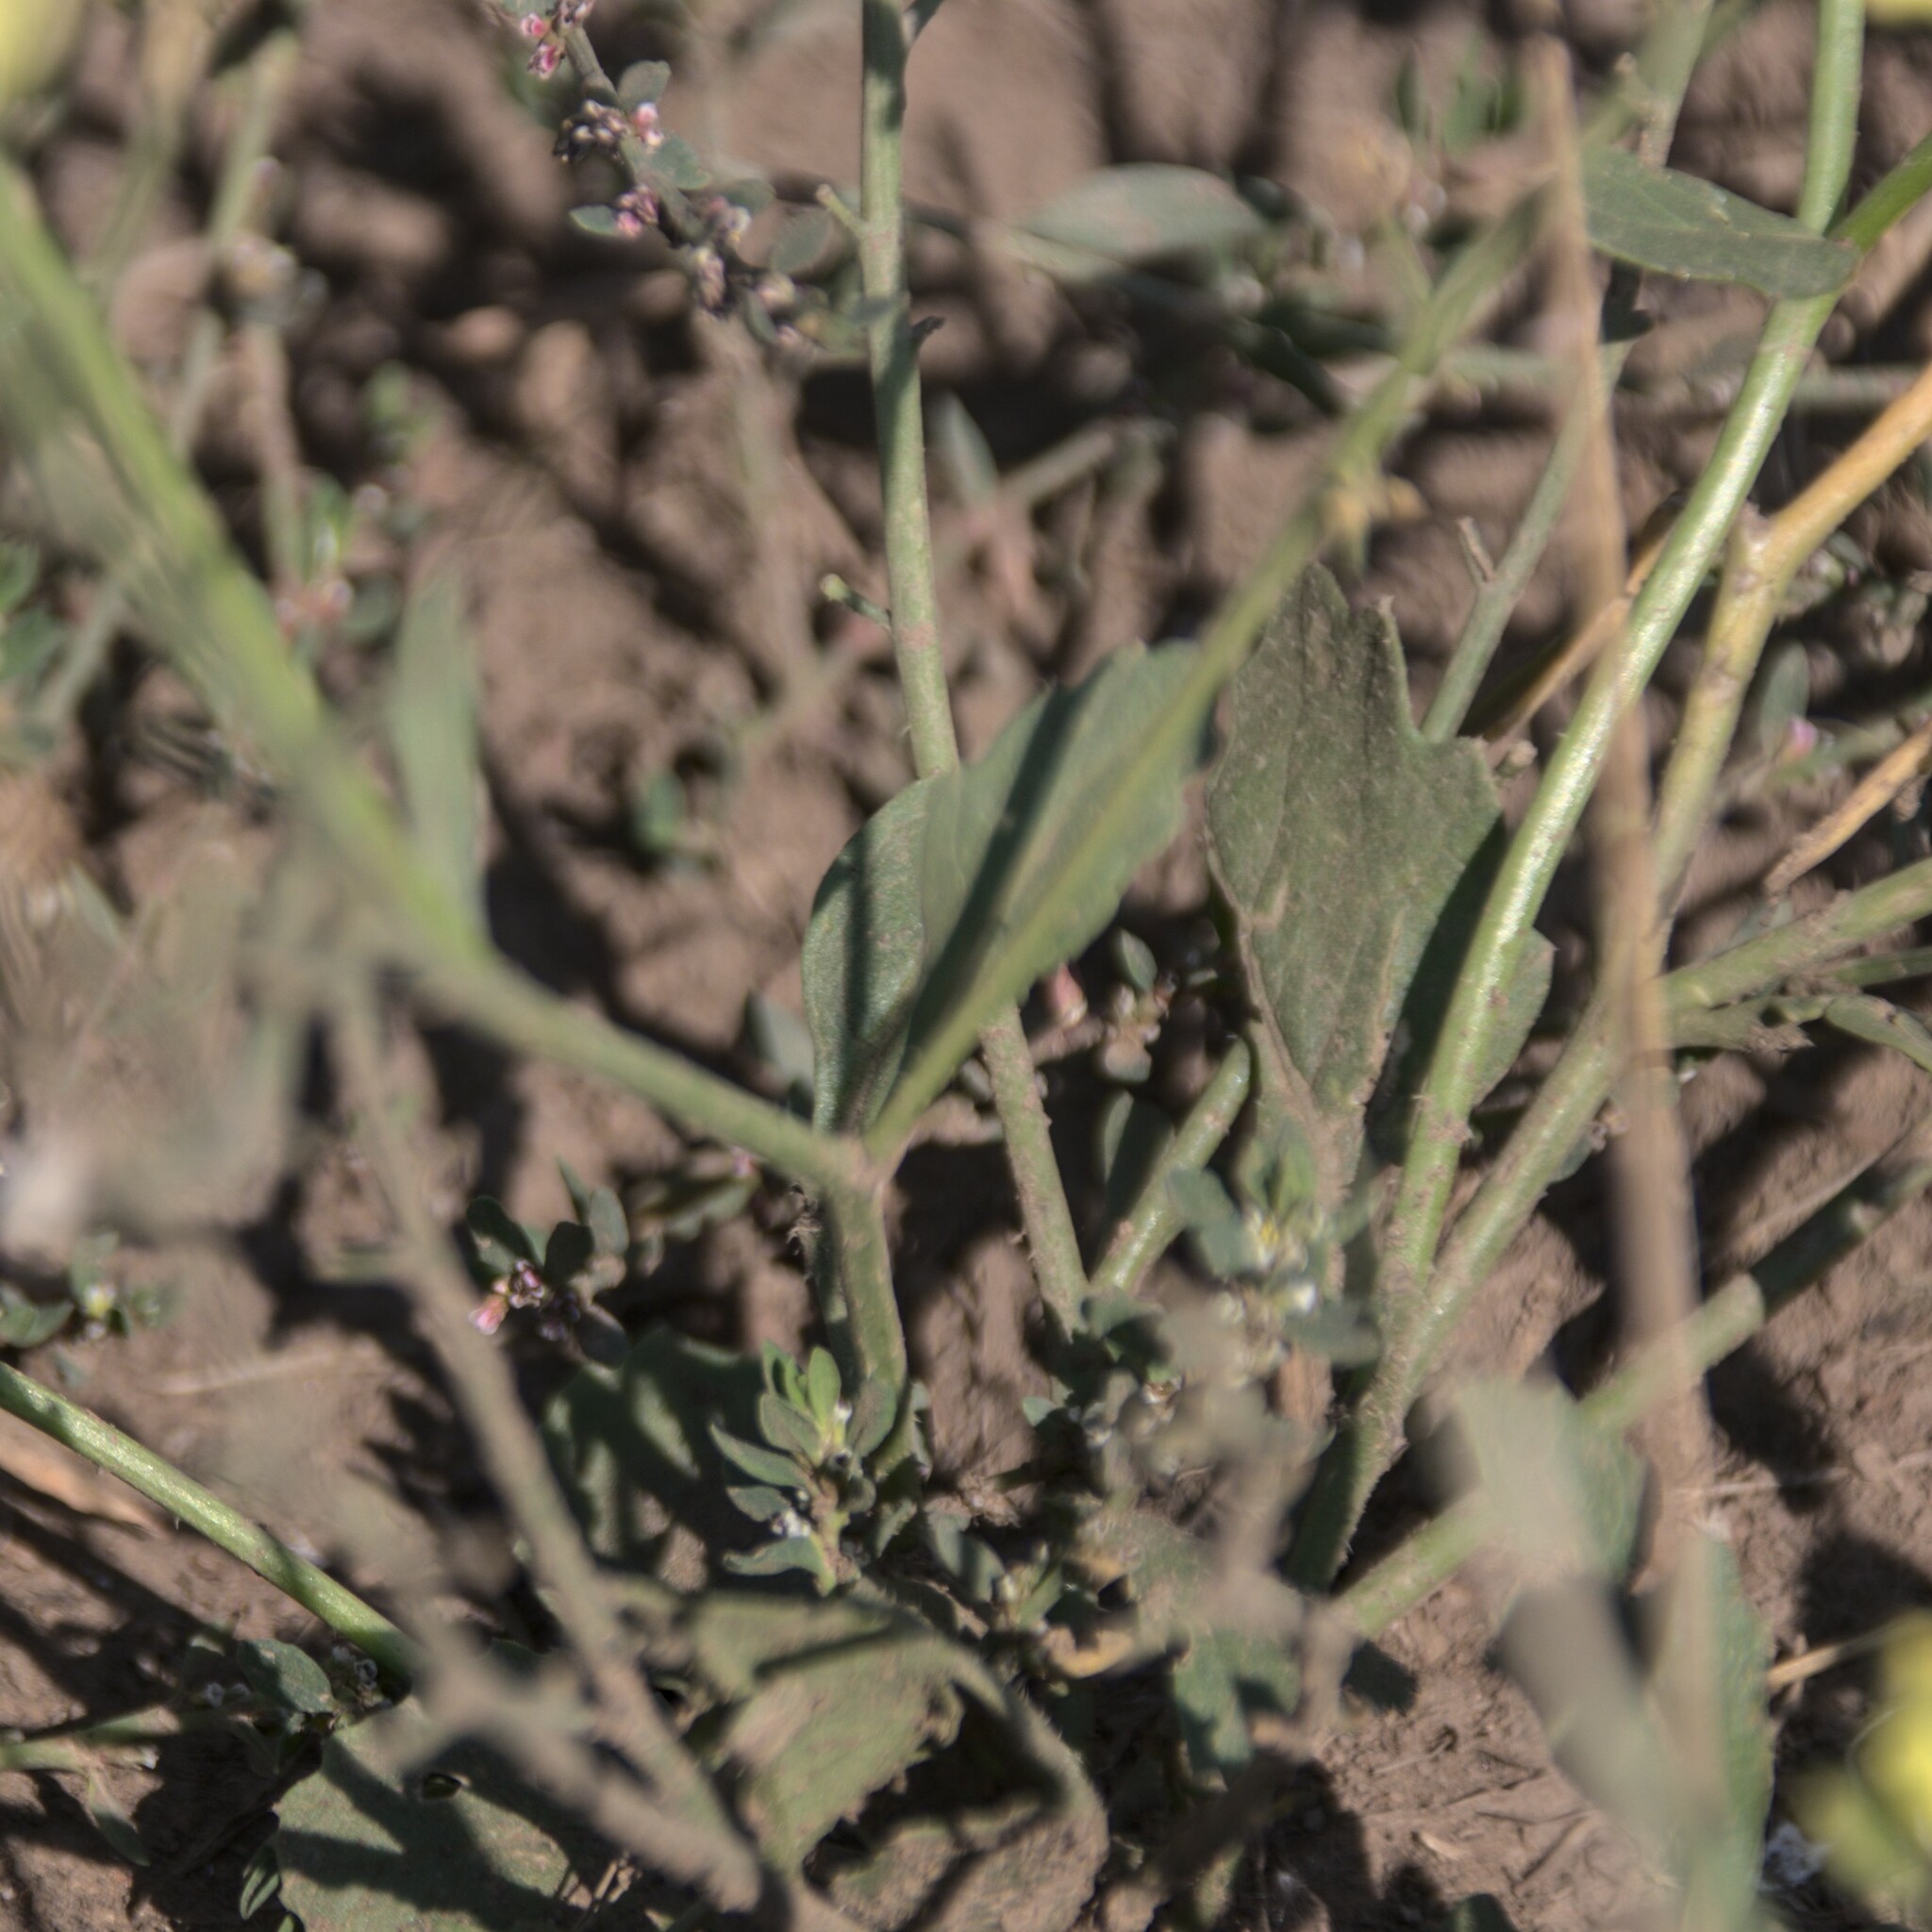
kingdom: Plantae
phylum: Tracheophyta
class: Magnoliopsida
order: Brassicales
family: Brassicaceae
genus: Raphanus
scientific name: Raphanus raphanistrum
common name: Wild radish
